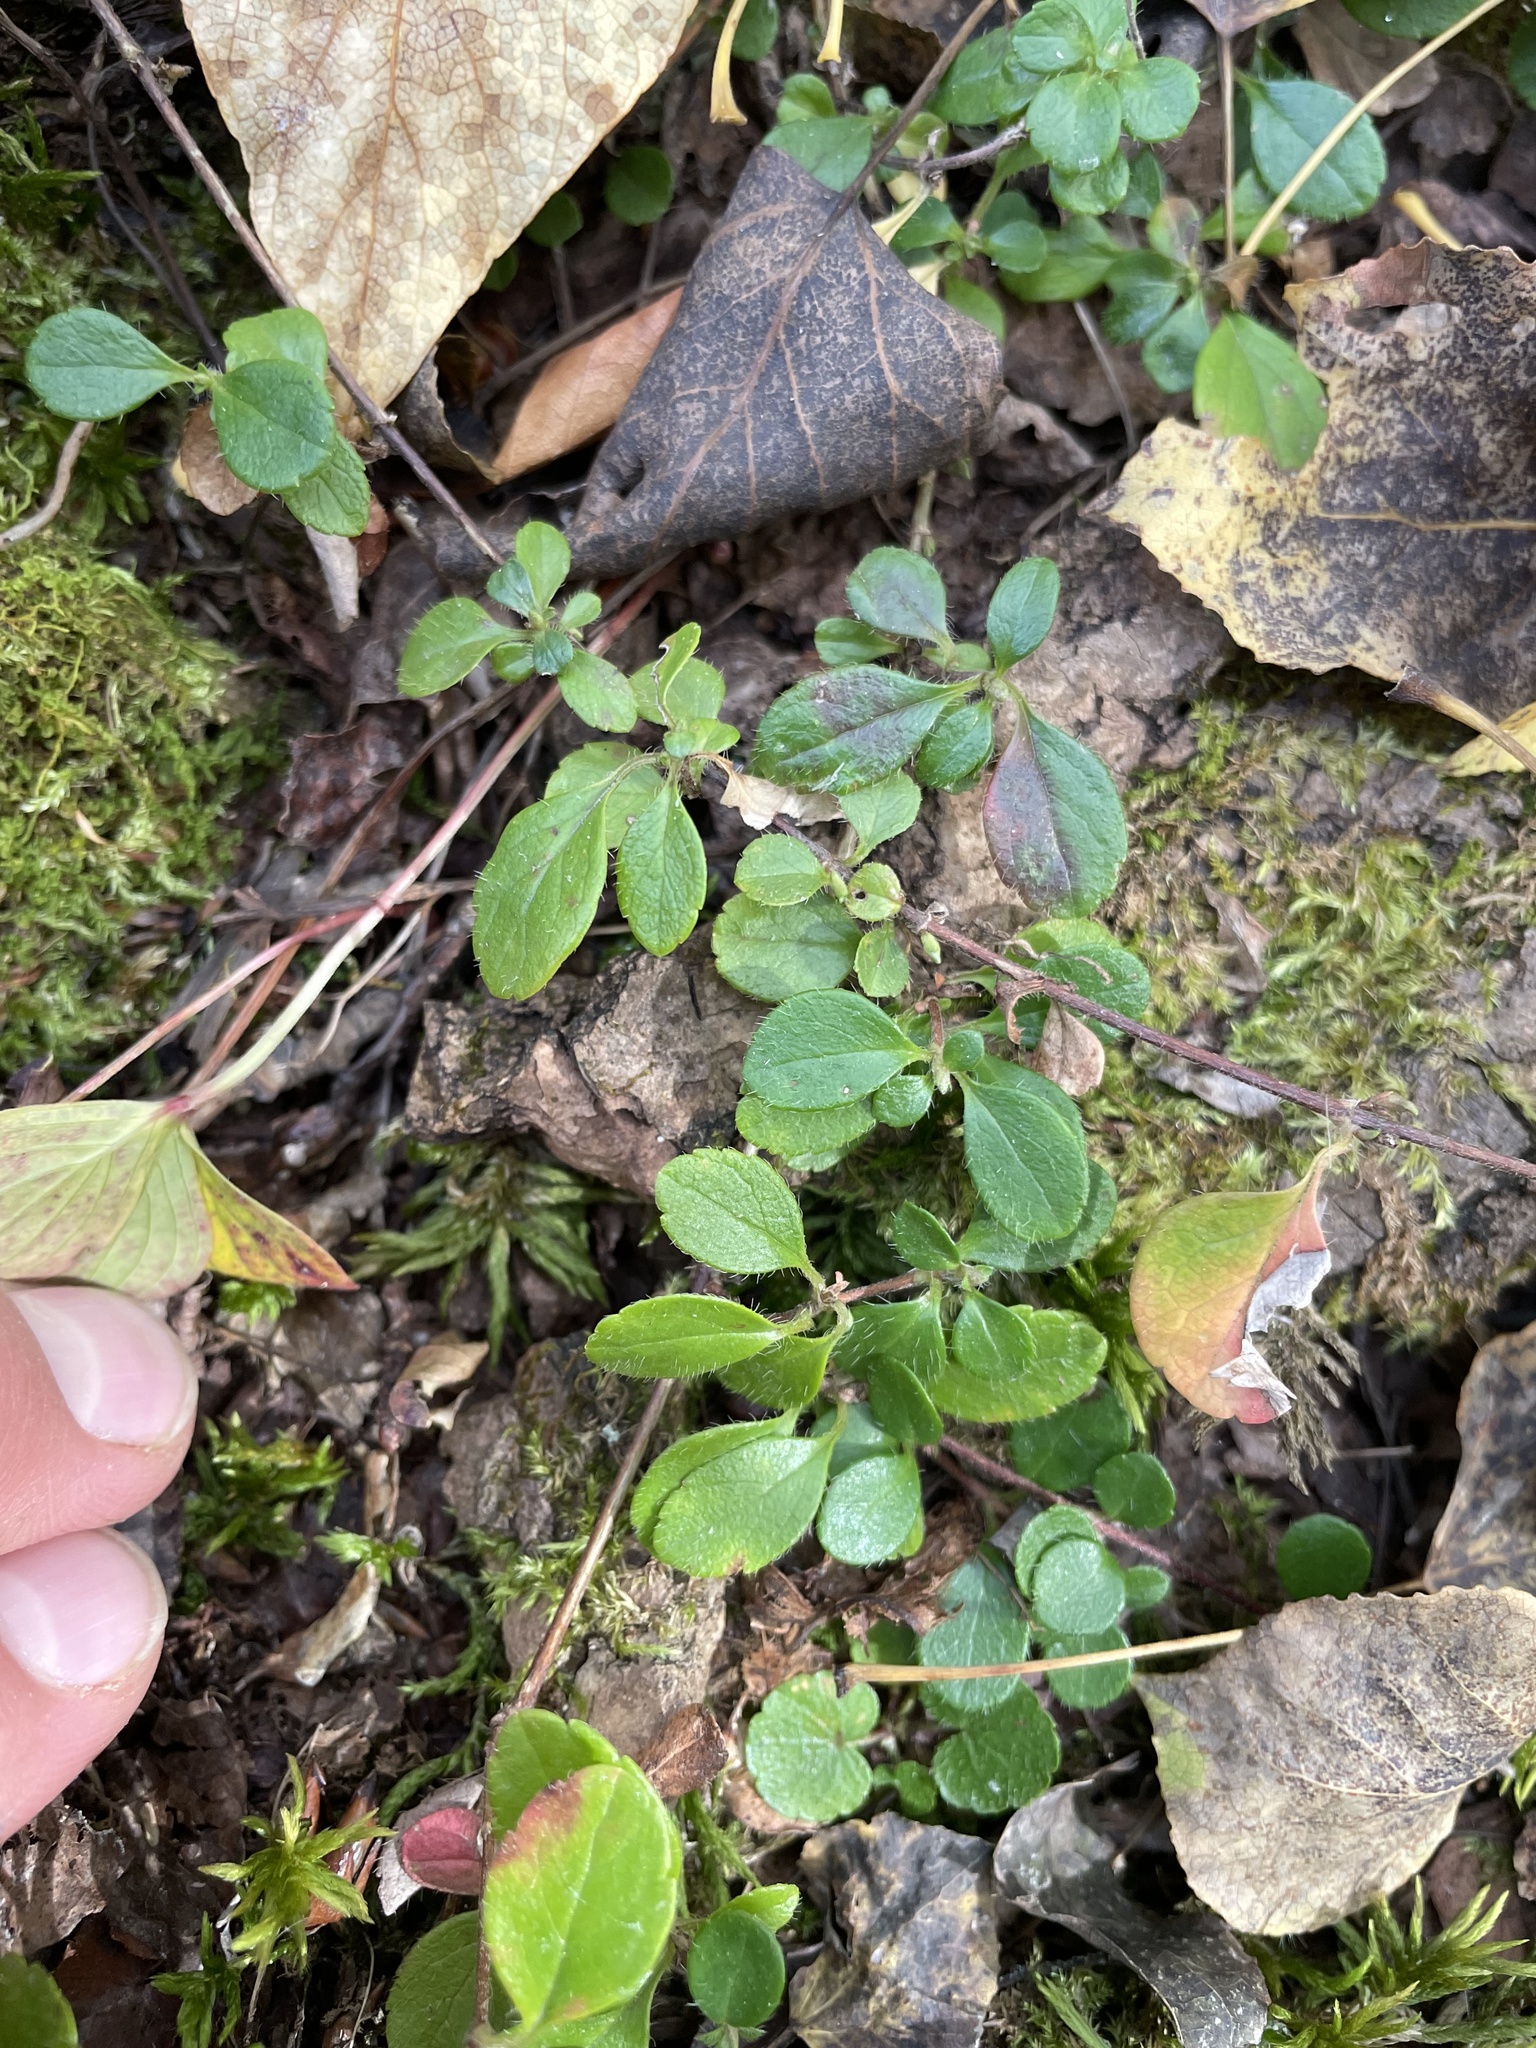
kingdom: Plantae
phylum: Tracheophyta
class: Magnoliopsida
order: Dipsacales
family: Caprifoliaceae
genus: Linnaea
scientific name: Linnaea borealis
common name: Twinflower
